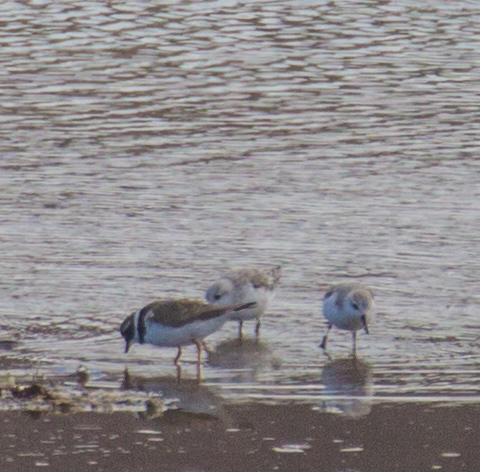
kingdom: Animalia
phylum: Chordata
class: Aves
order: Charadriiformes
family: Charadriidae
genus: Charadrius
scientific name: Charadrius hiaticula
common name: Common ringed plover
